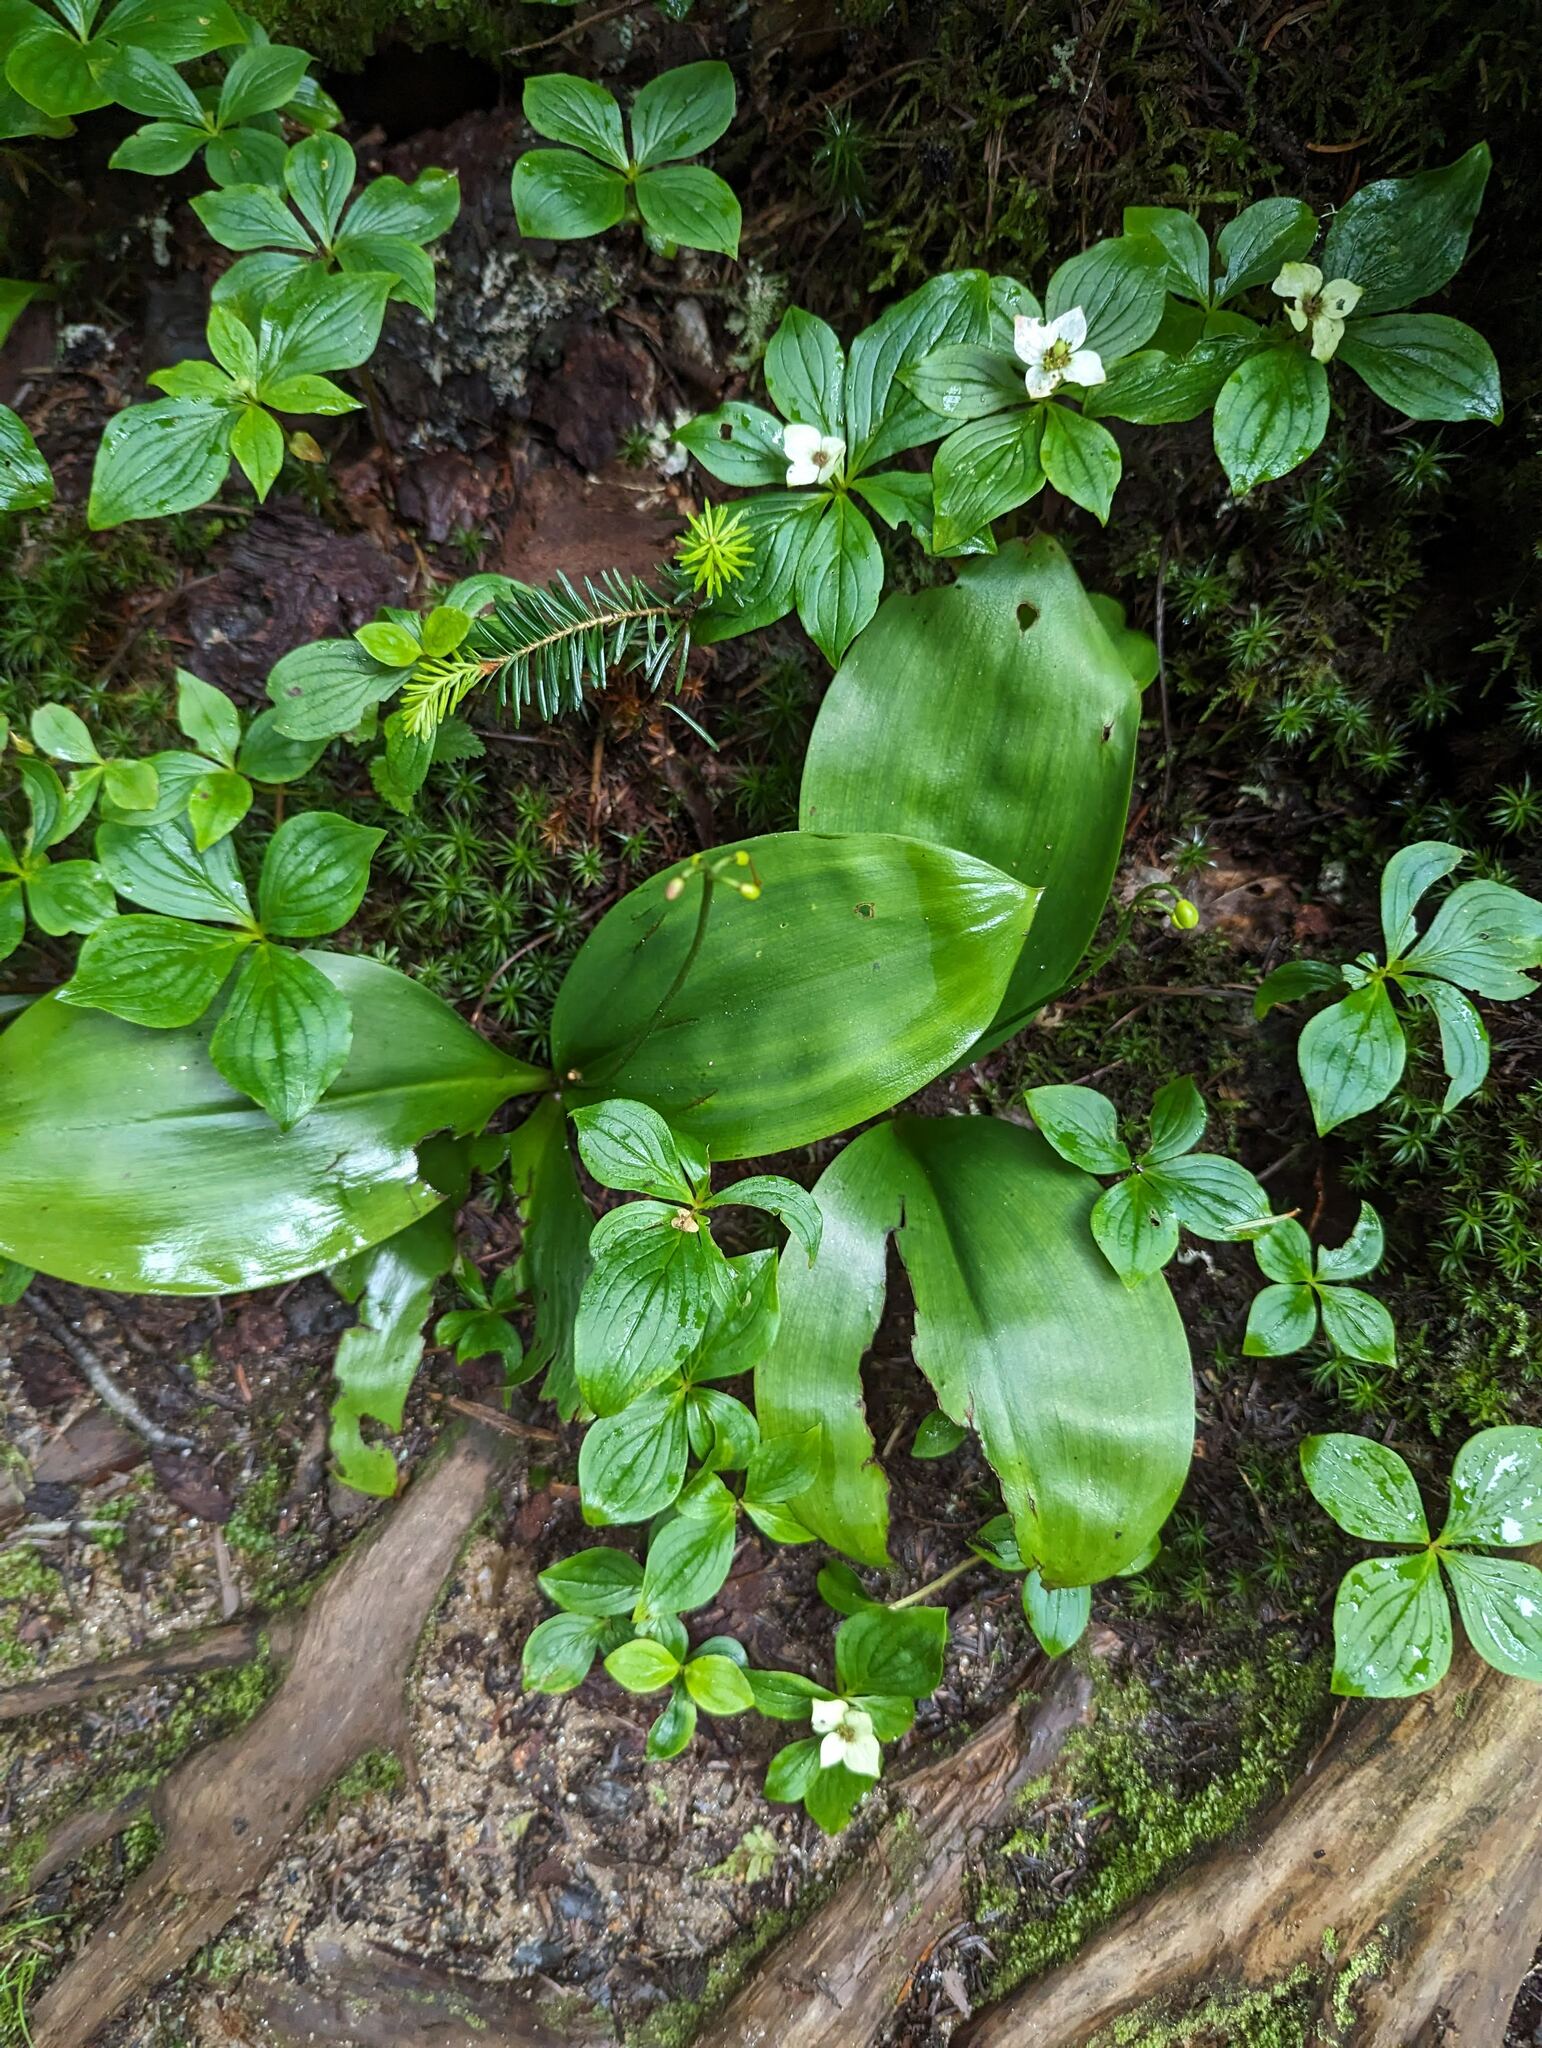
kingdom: Plantae
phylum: Tracheophyta
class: Liliopsida
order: Liliales
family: Liliaceae
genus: Clintonia
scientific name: Clintonia borealis
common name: Yellow clintonia
